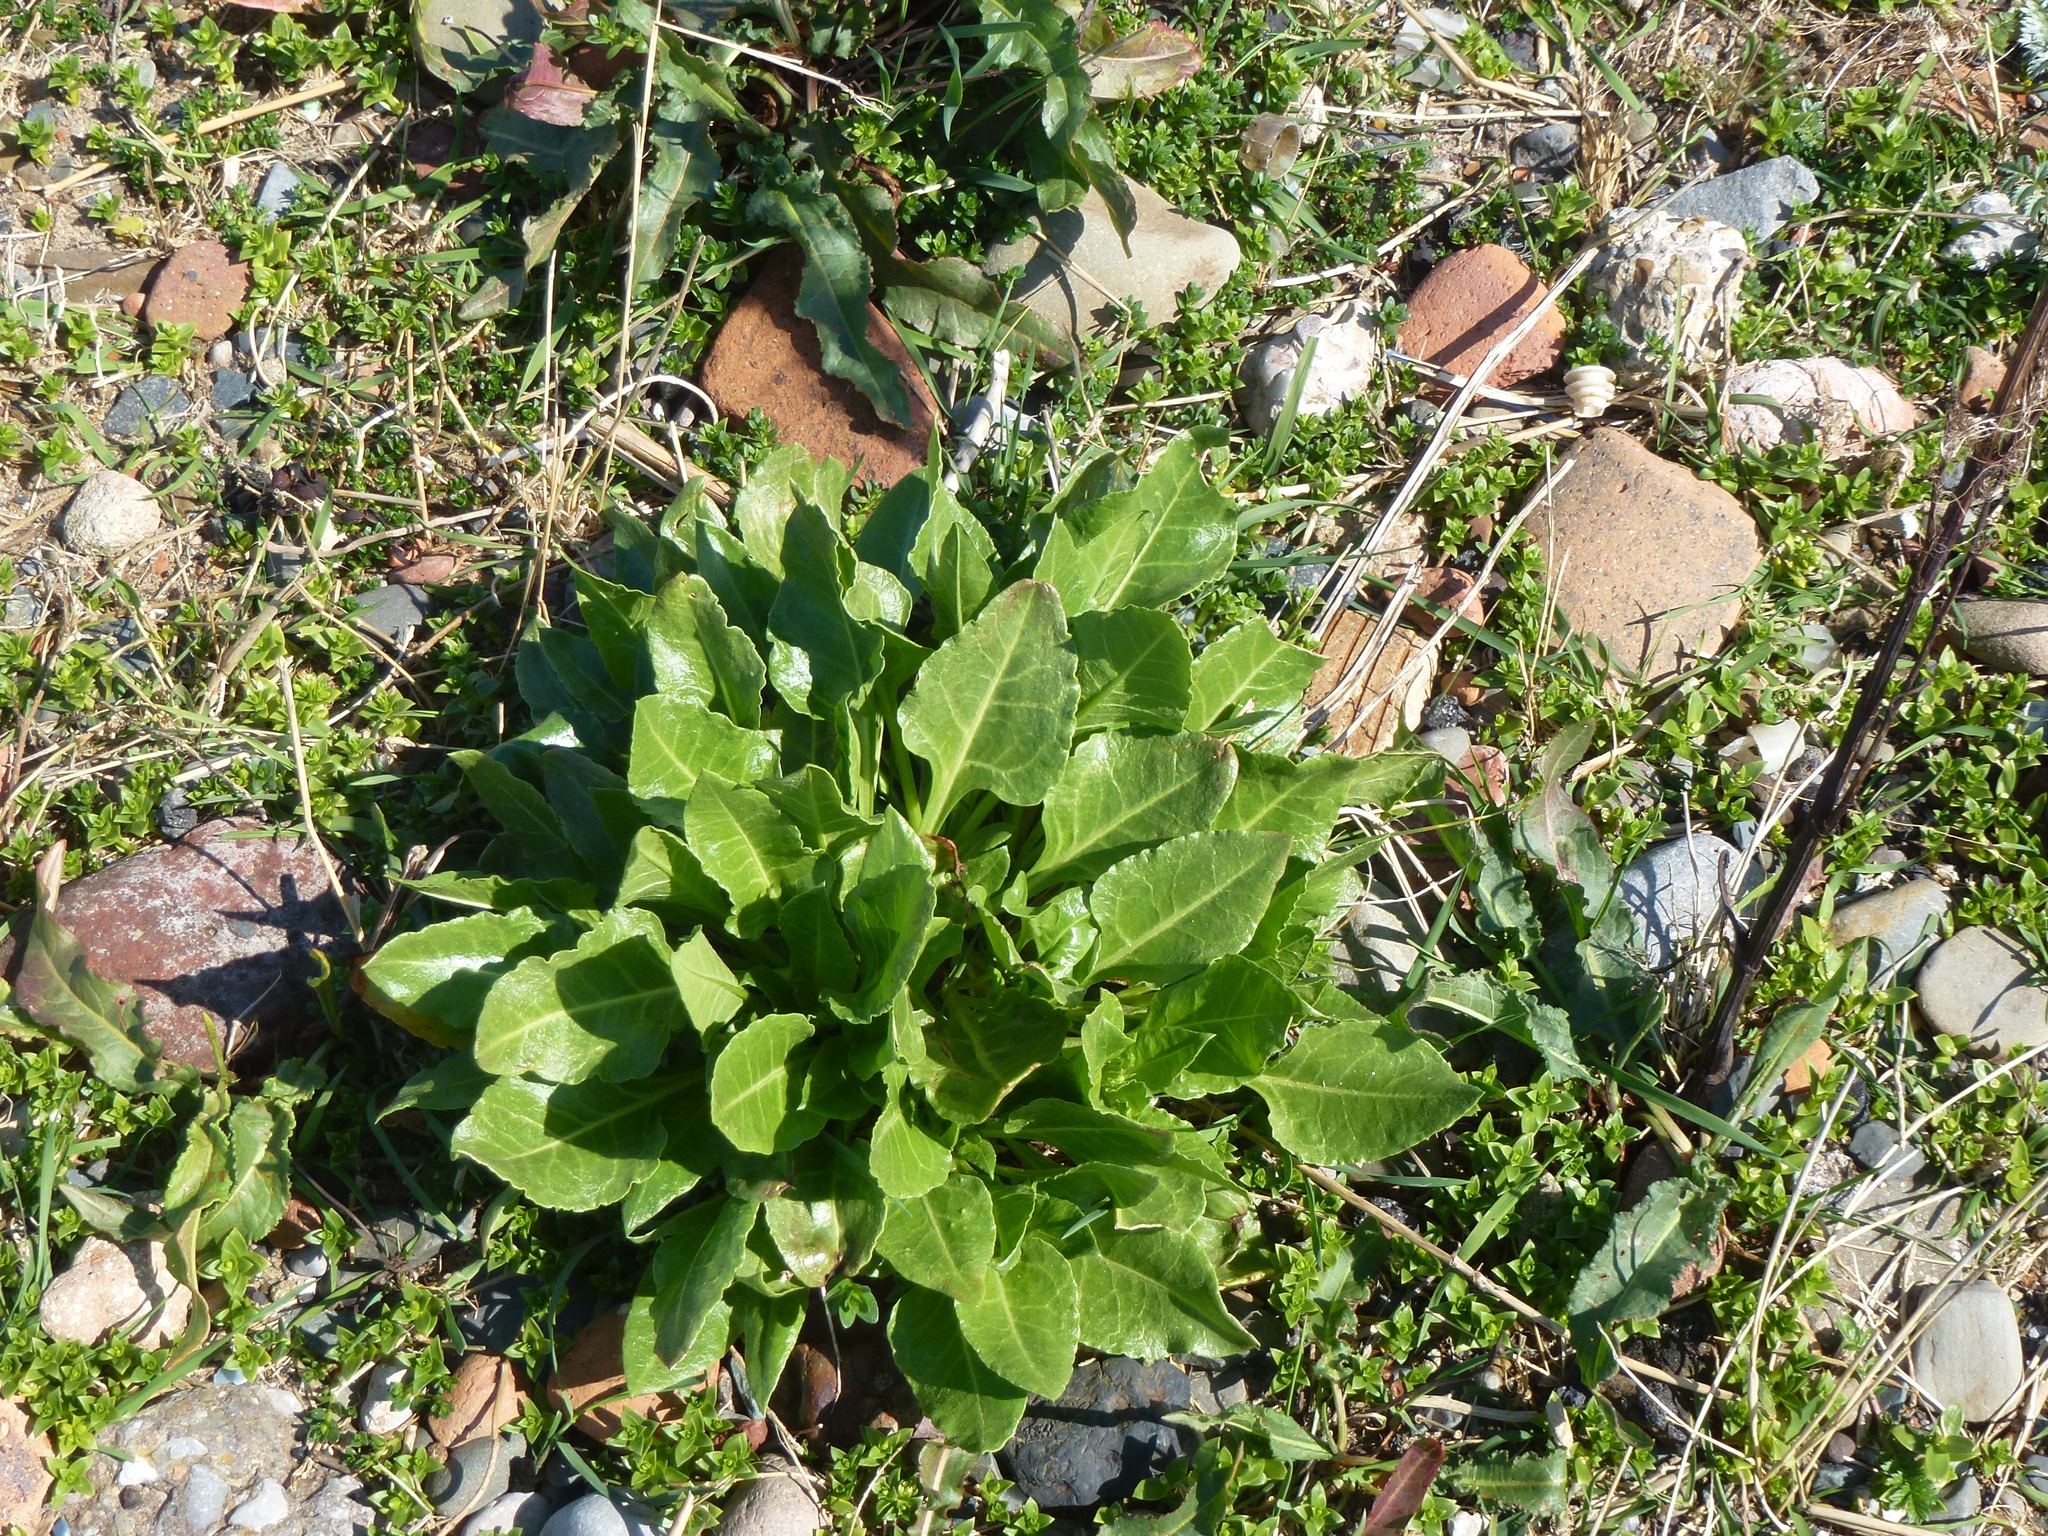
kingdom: Plantae
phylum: Tracheophyta
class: Magnoliopsida
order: Caryophyllales
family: Amaranthaceae
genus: Beta
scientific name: Beta vulgaris
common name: Beet
